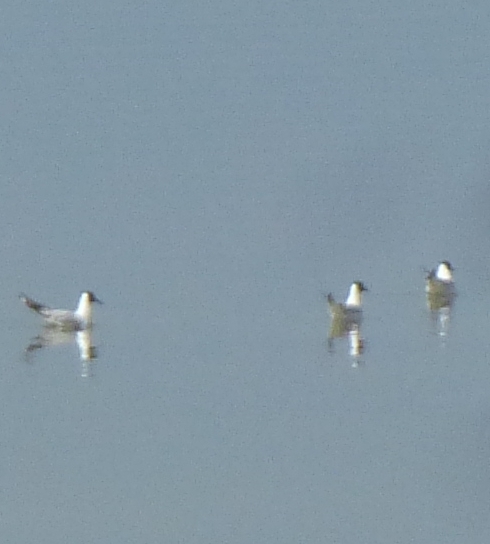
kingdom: Animalia
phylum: Chordata
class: Aves
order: Charadriiformes
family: Laridae
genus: Chroicocephalus
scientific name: Chroicocephalus ridibundus
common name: Black-headed gull
